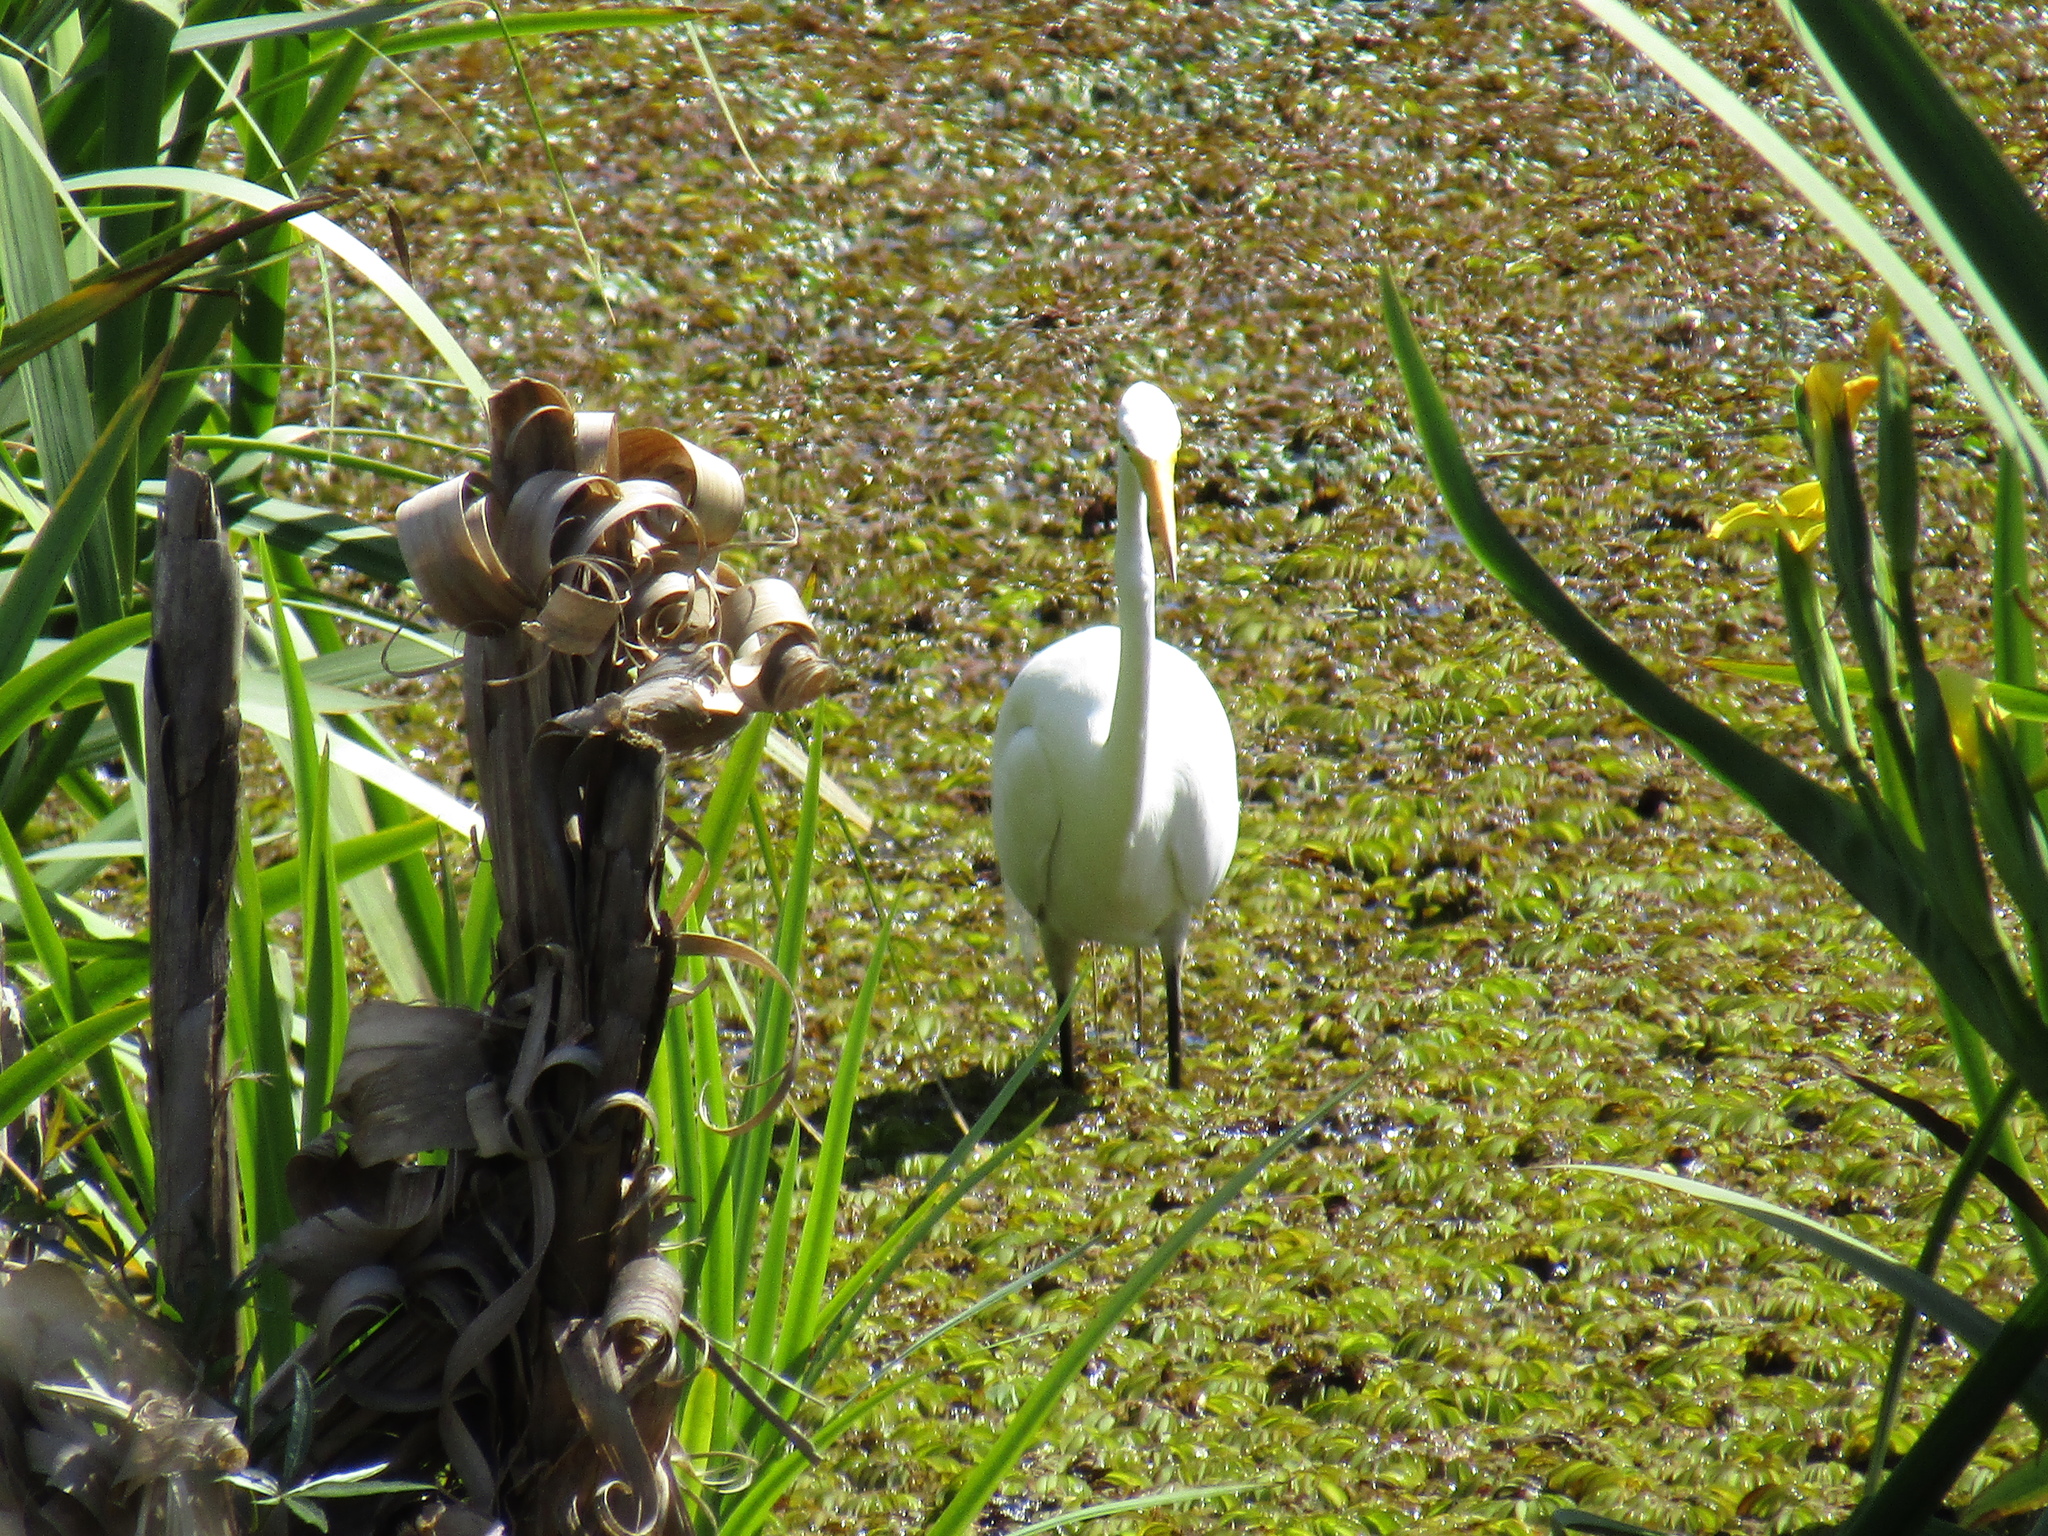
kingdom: Animalia
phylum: Chordata
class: Aves
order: Pelecaniformes
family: Ardeidae
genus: Ardea
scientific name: Ardea alba
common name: Great egret
